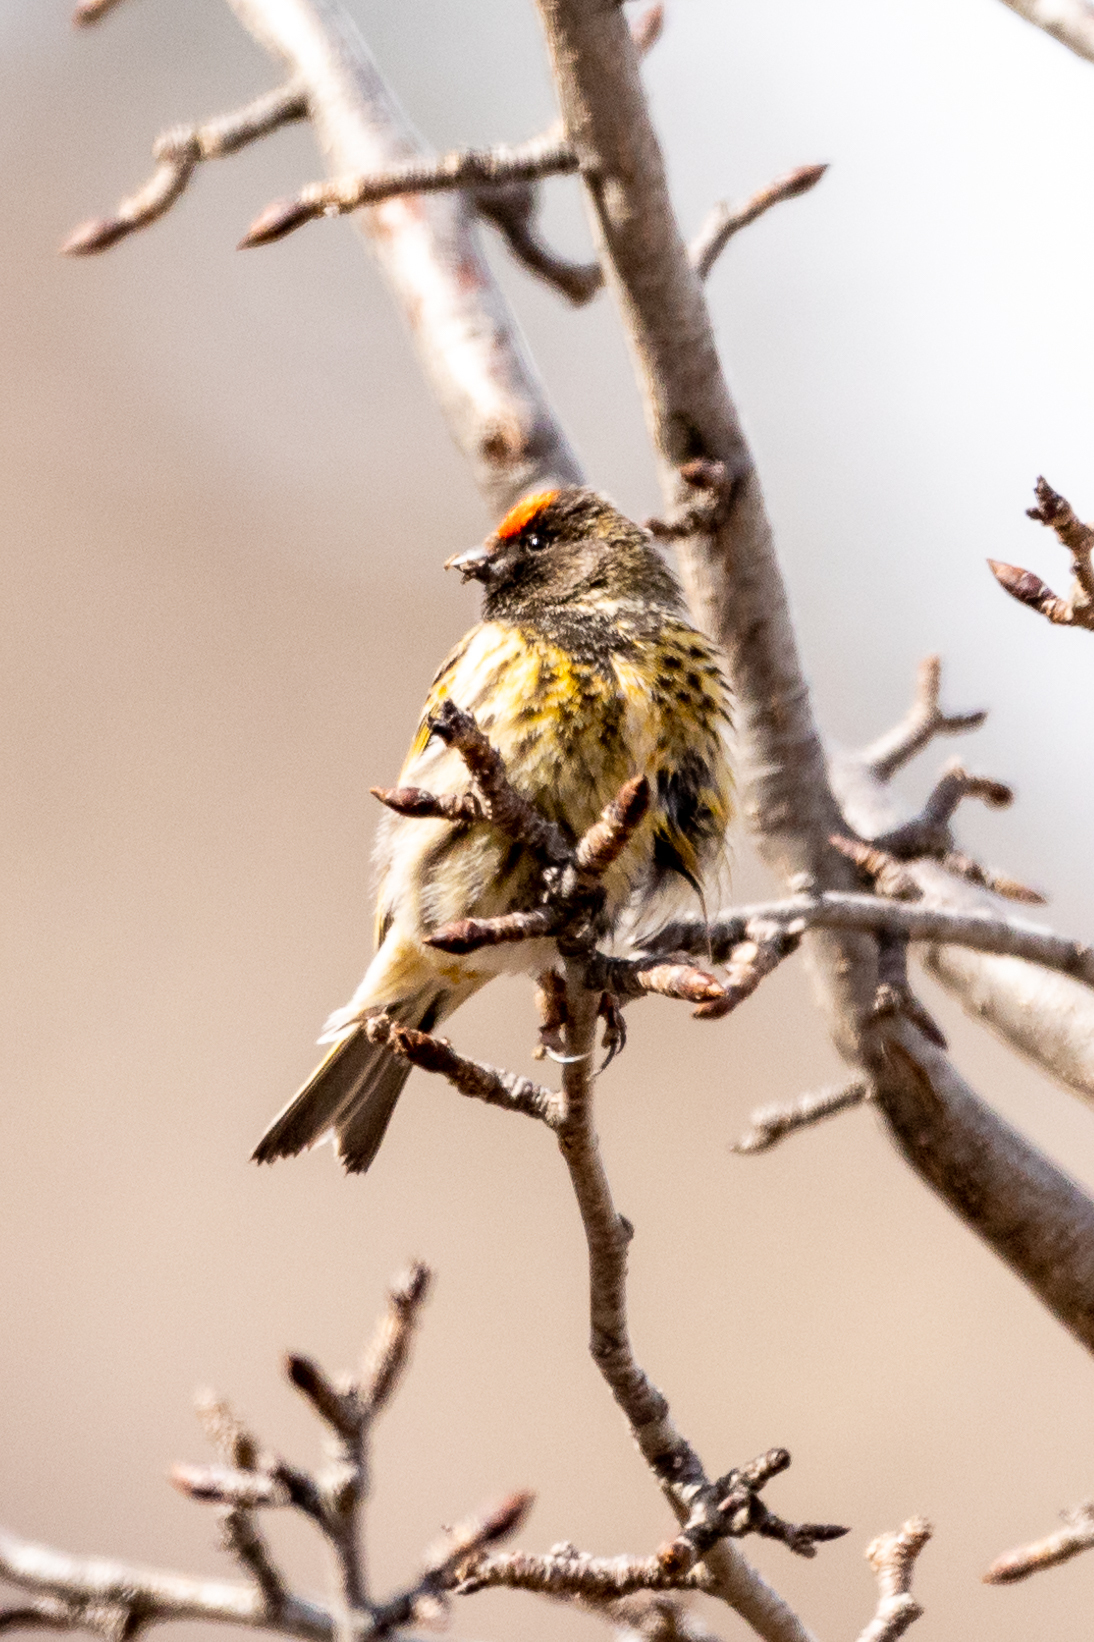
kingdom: Animalia
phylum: Chordata
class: Aves
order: Passeriformes
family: Fringillidae
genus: Serinus
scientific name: Serinus pusillus
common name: Red-fronted serin
